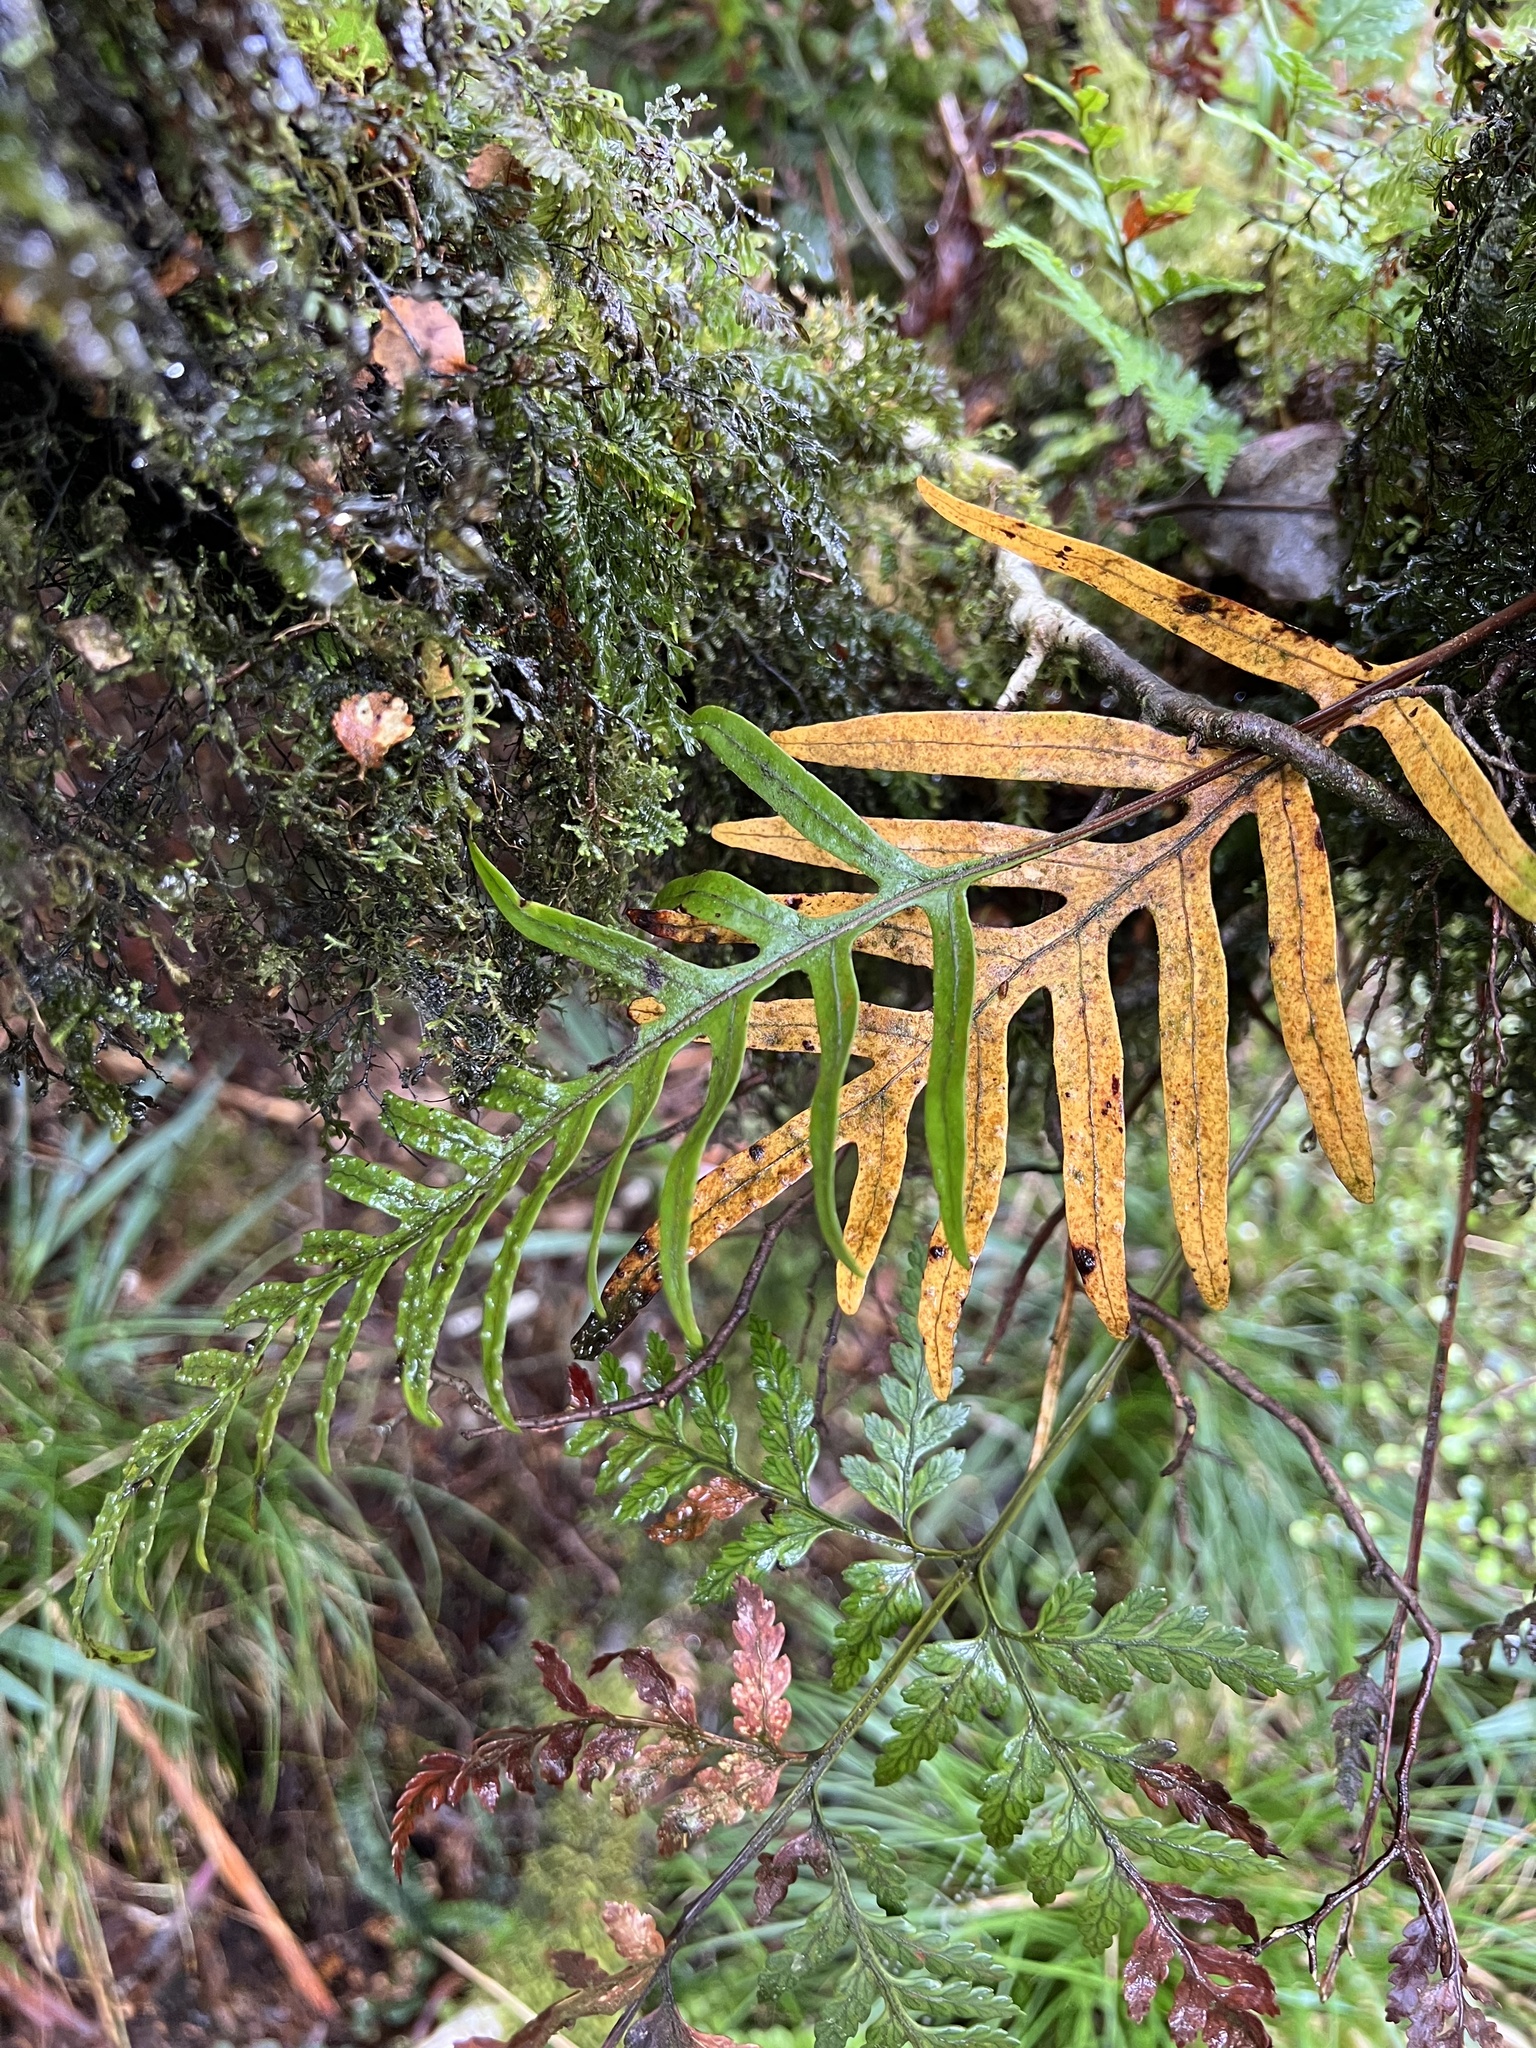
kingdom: Plantae
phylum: Tracheophyta
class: Polypodiopsida
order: Polypodiales
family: Polypodiaceae
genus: Lecanopteris
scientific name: Lecanopteris novae-zealandiae
